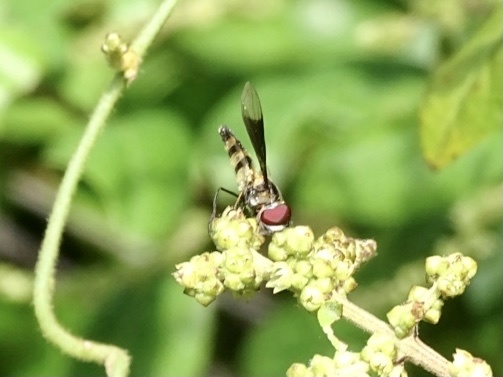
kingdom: Animalia
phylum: Arthropoda
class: Insecta
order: Diptera
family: Syrphidae
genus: Dideopsis
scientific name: Dideopsis aegrota
